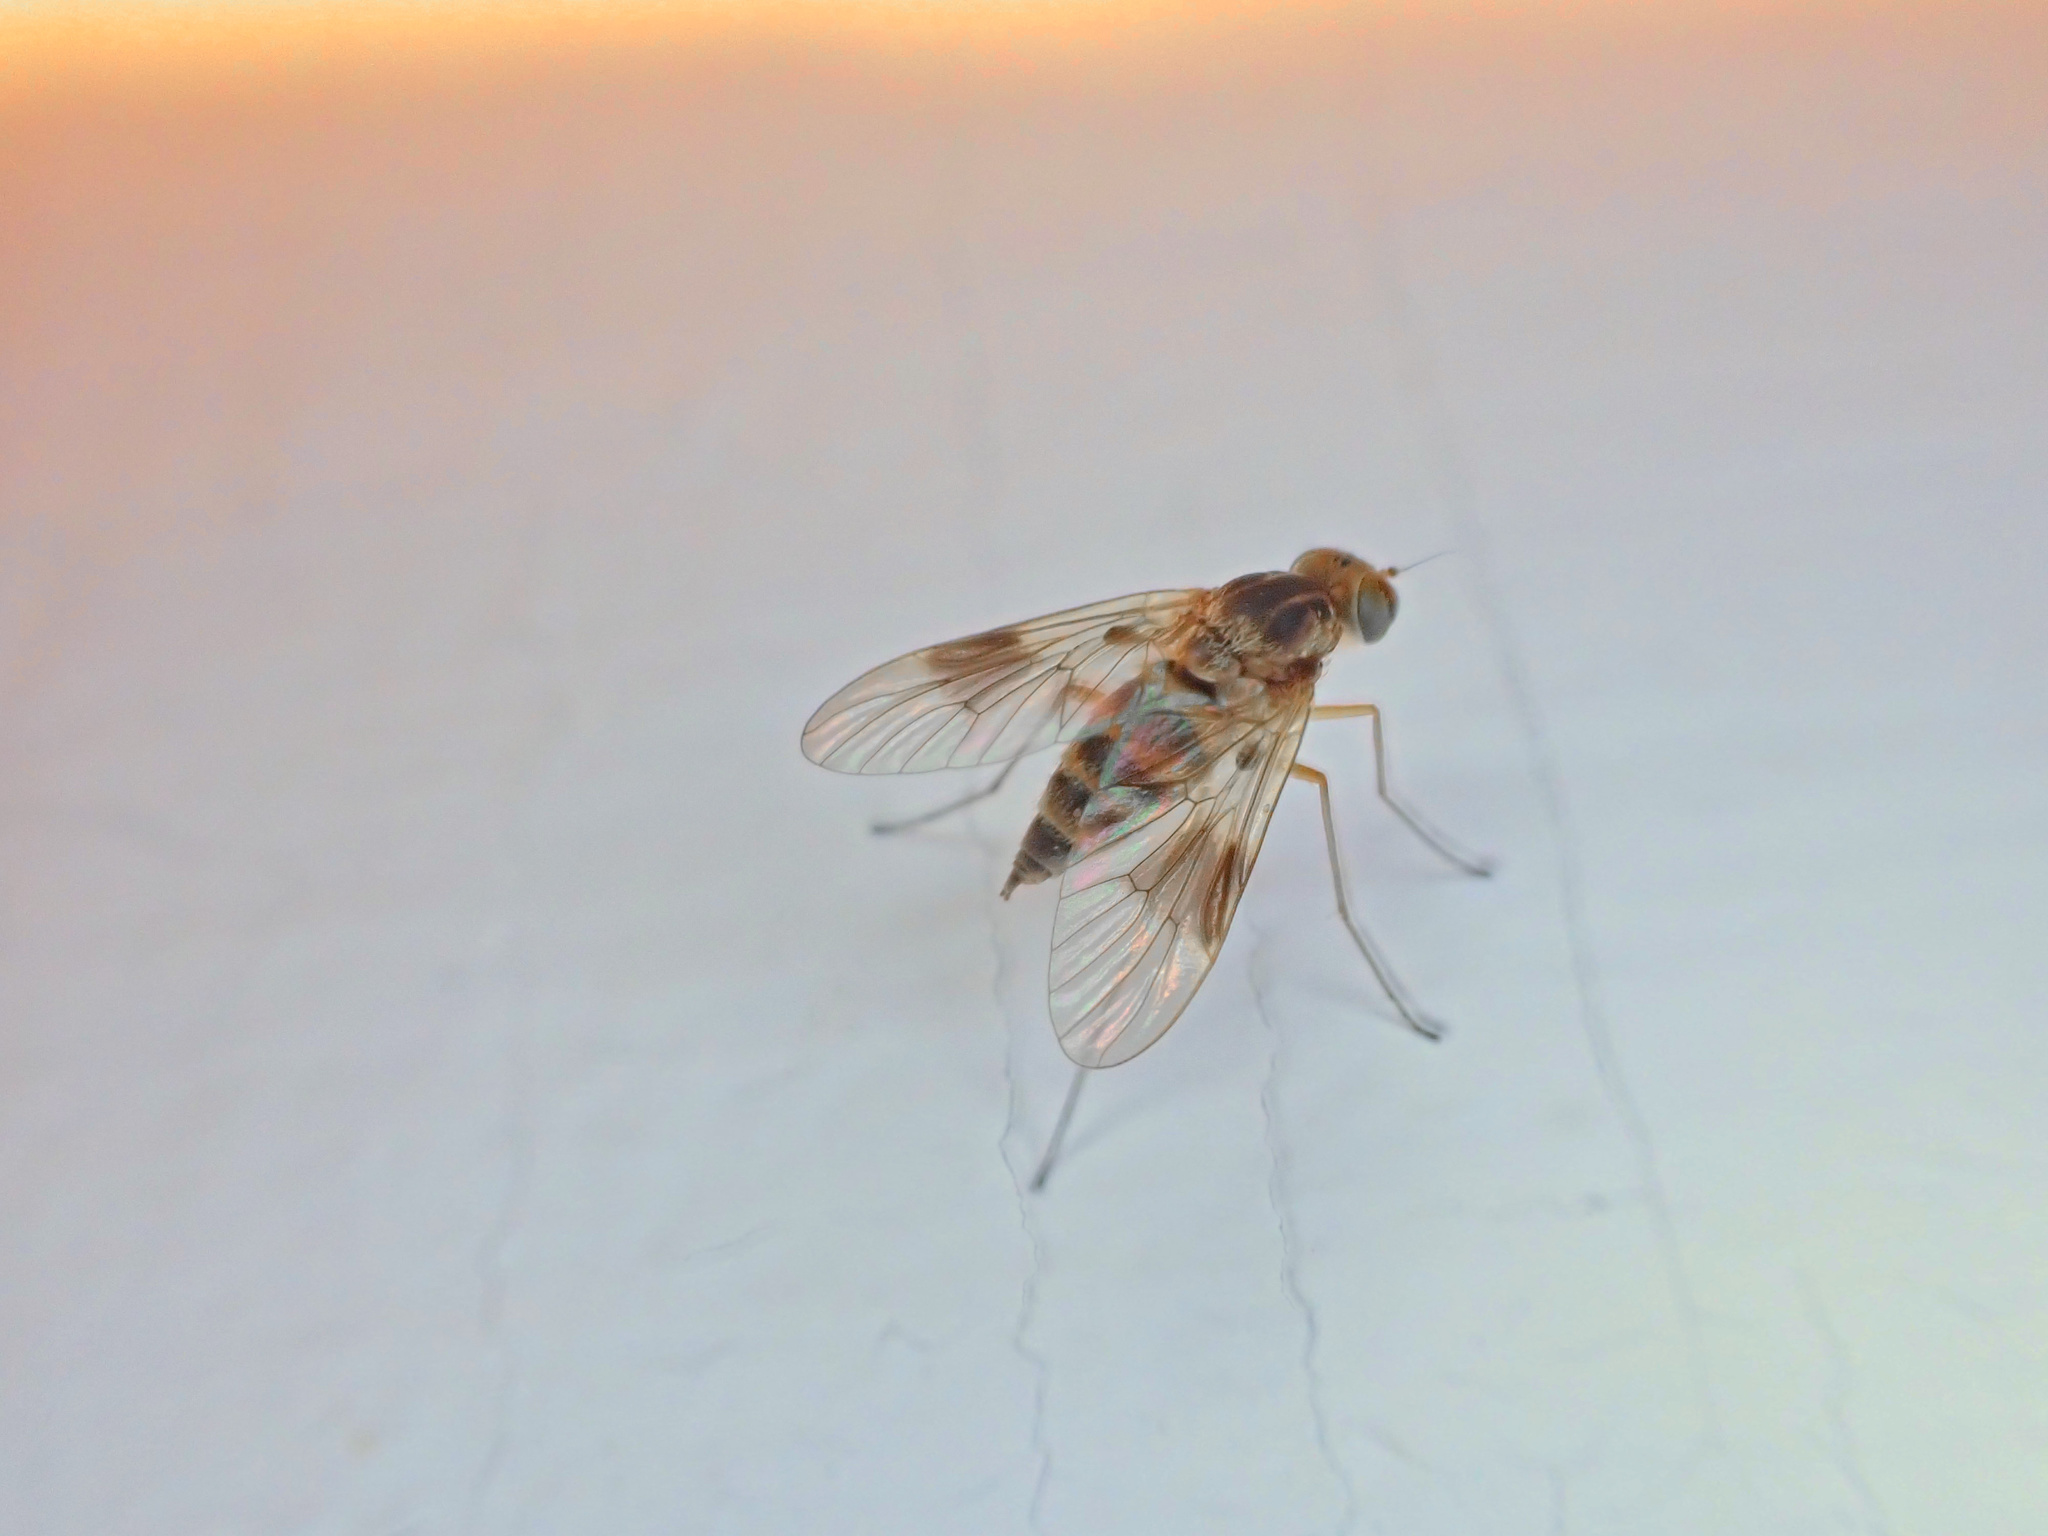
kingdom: Animalia
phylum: Arthropoda
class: Insecta
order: Diptera
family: Rhagionidae
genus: Chrysopilus
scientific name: Chrysopilus quadratus
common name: Quadrate snipe fly
